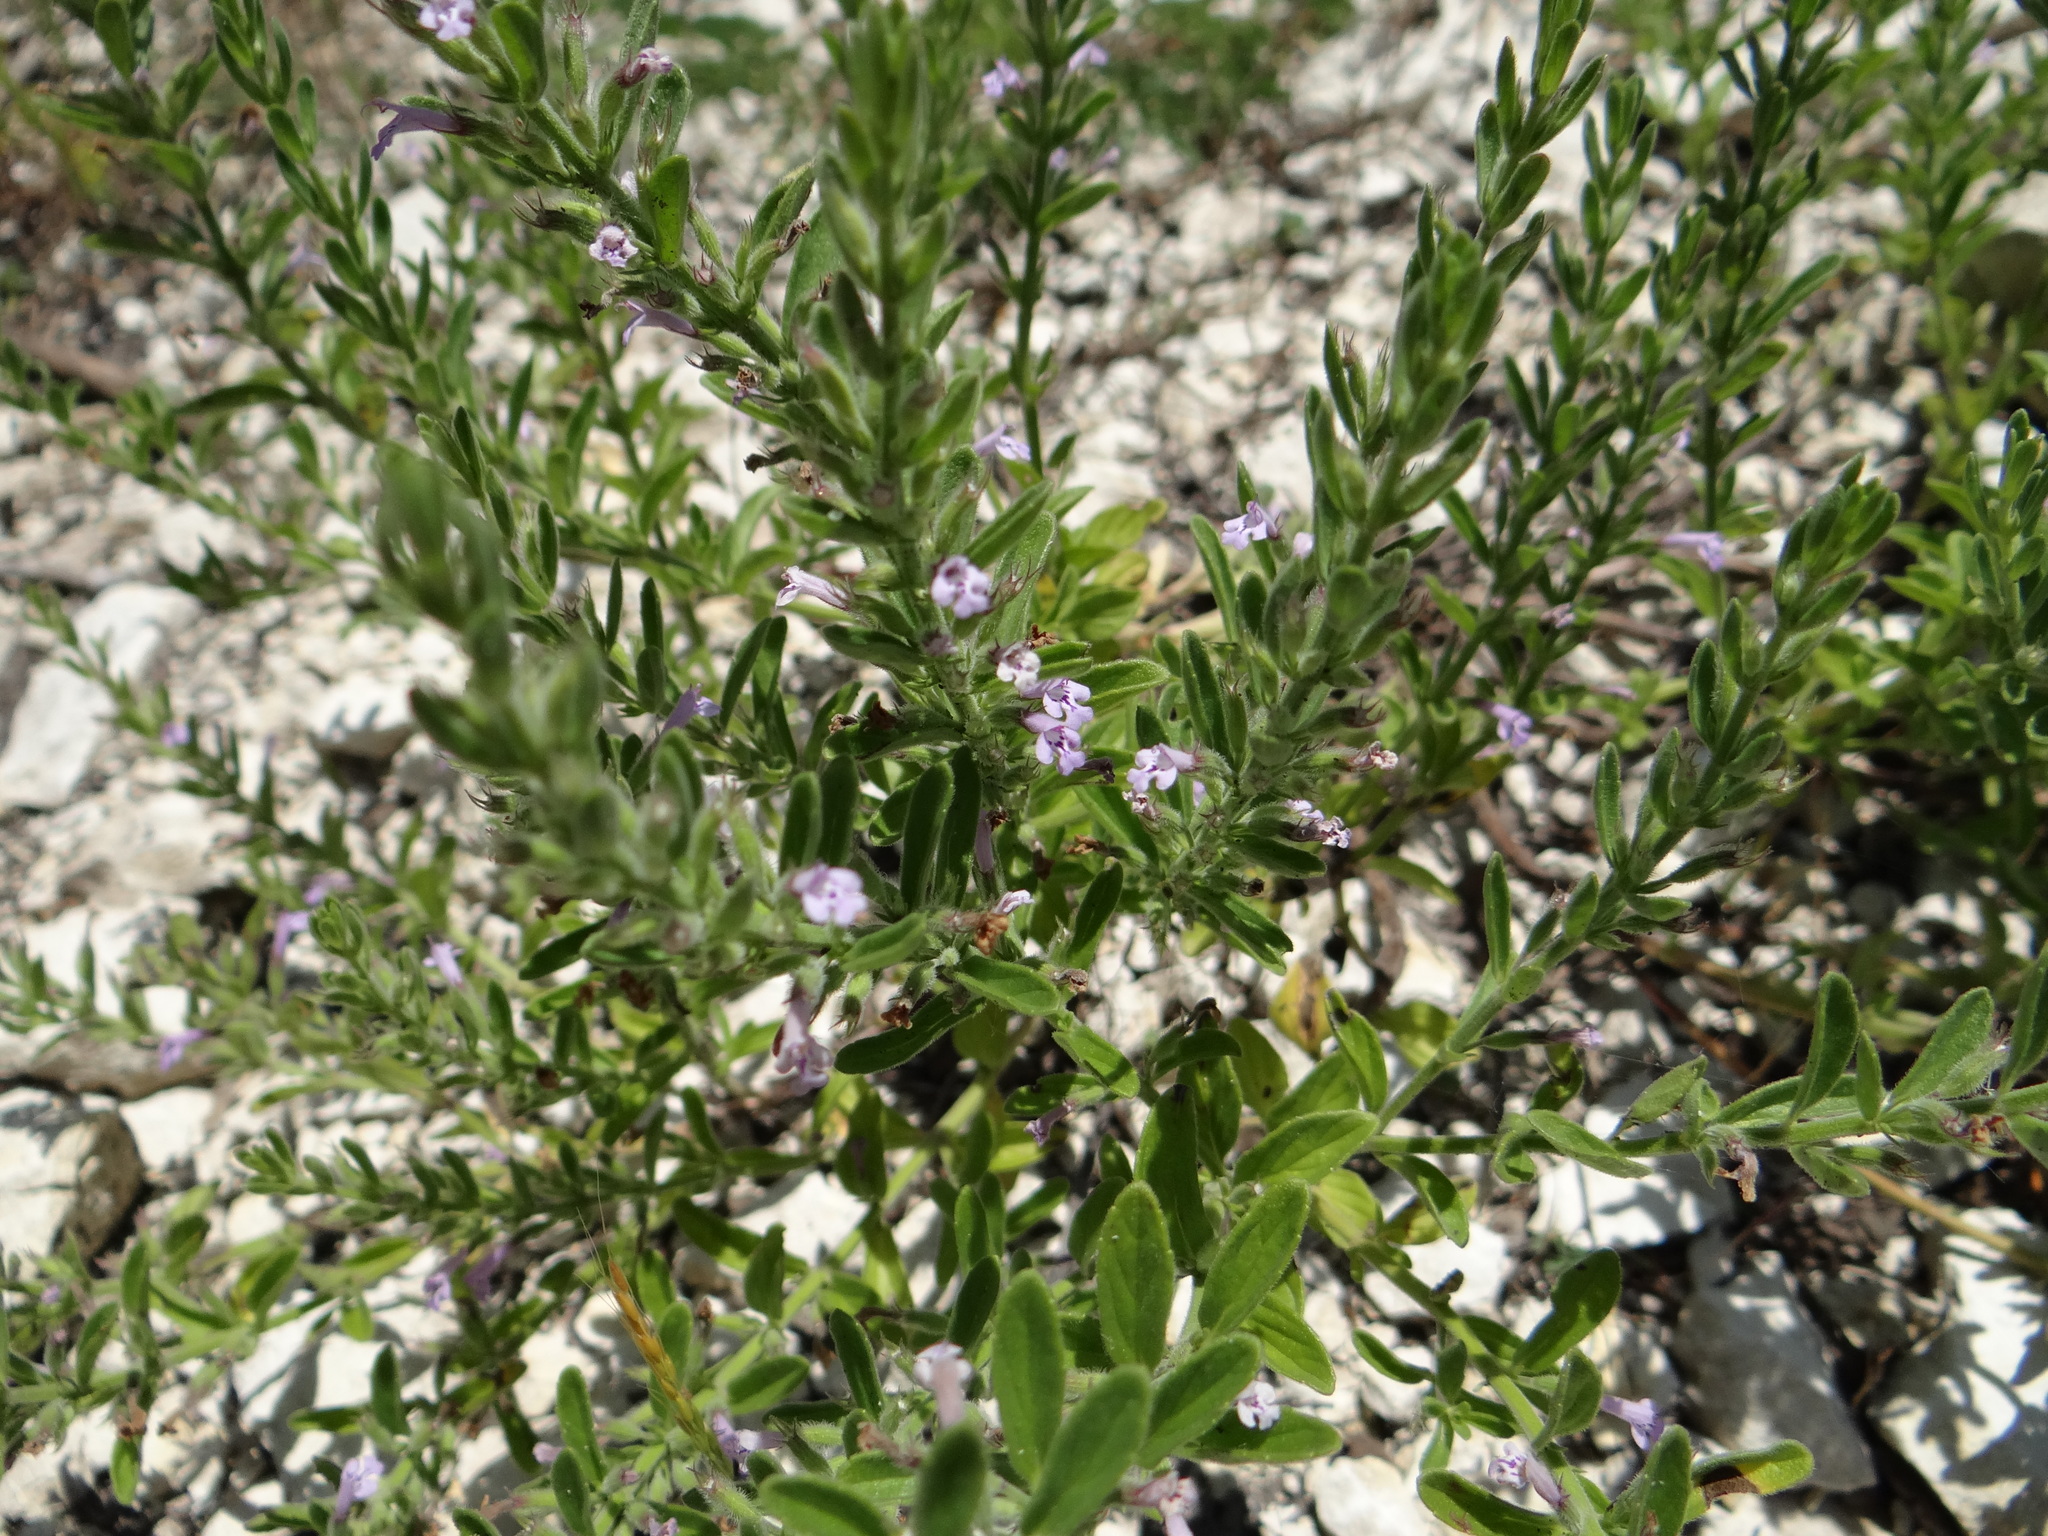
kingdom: Plantae
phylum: Tracheophyta
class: Magnoliopsida
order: Lamiales
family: Lamiaceae
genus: Hedeoma
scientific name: Hedeoma reverchonii
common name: Reverchon's false penny-royal
